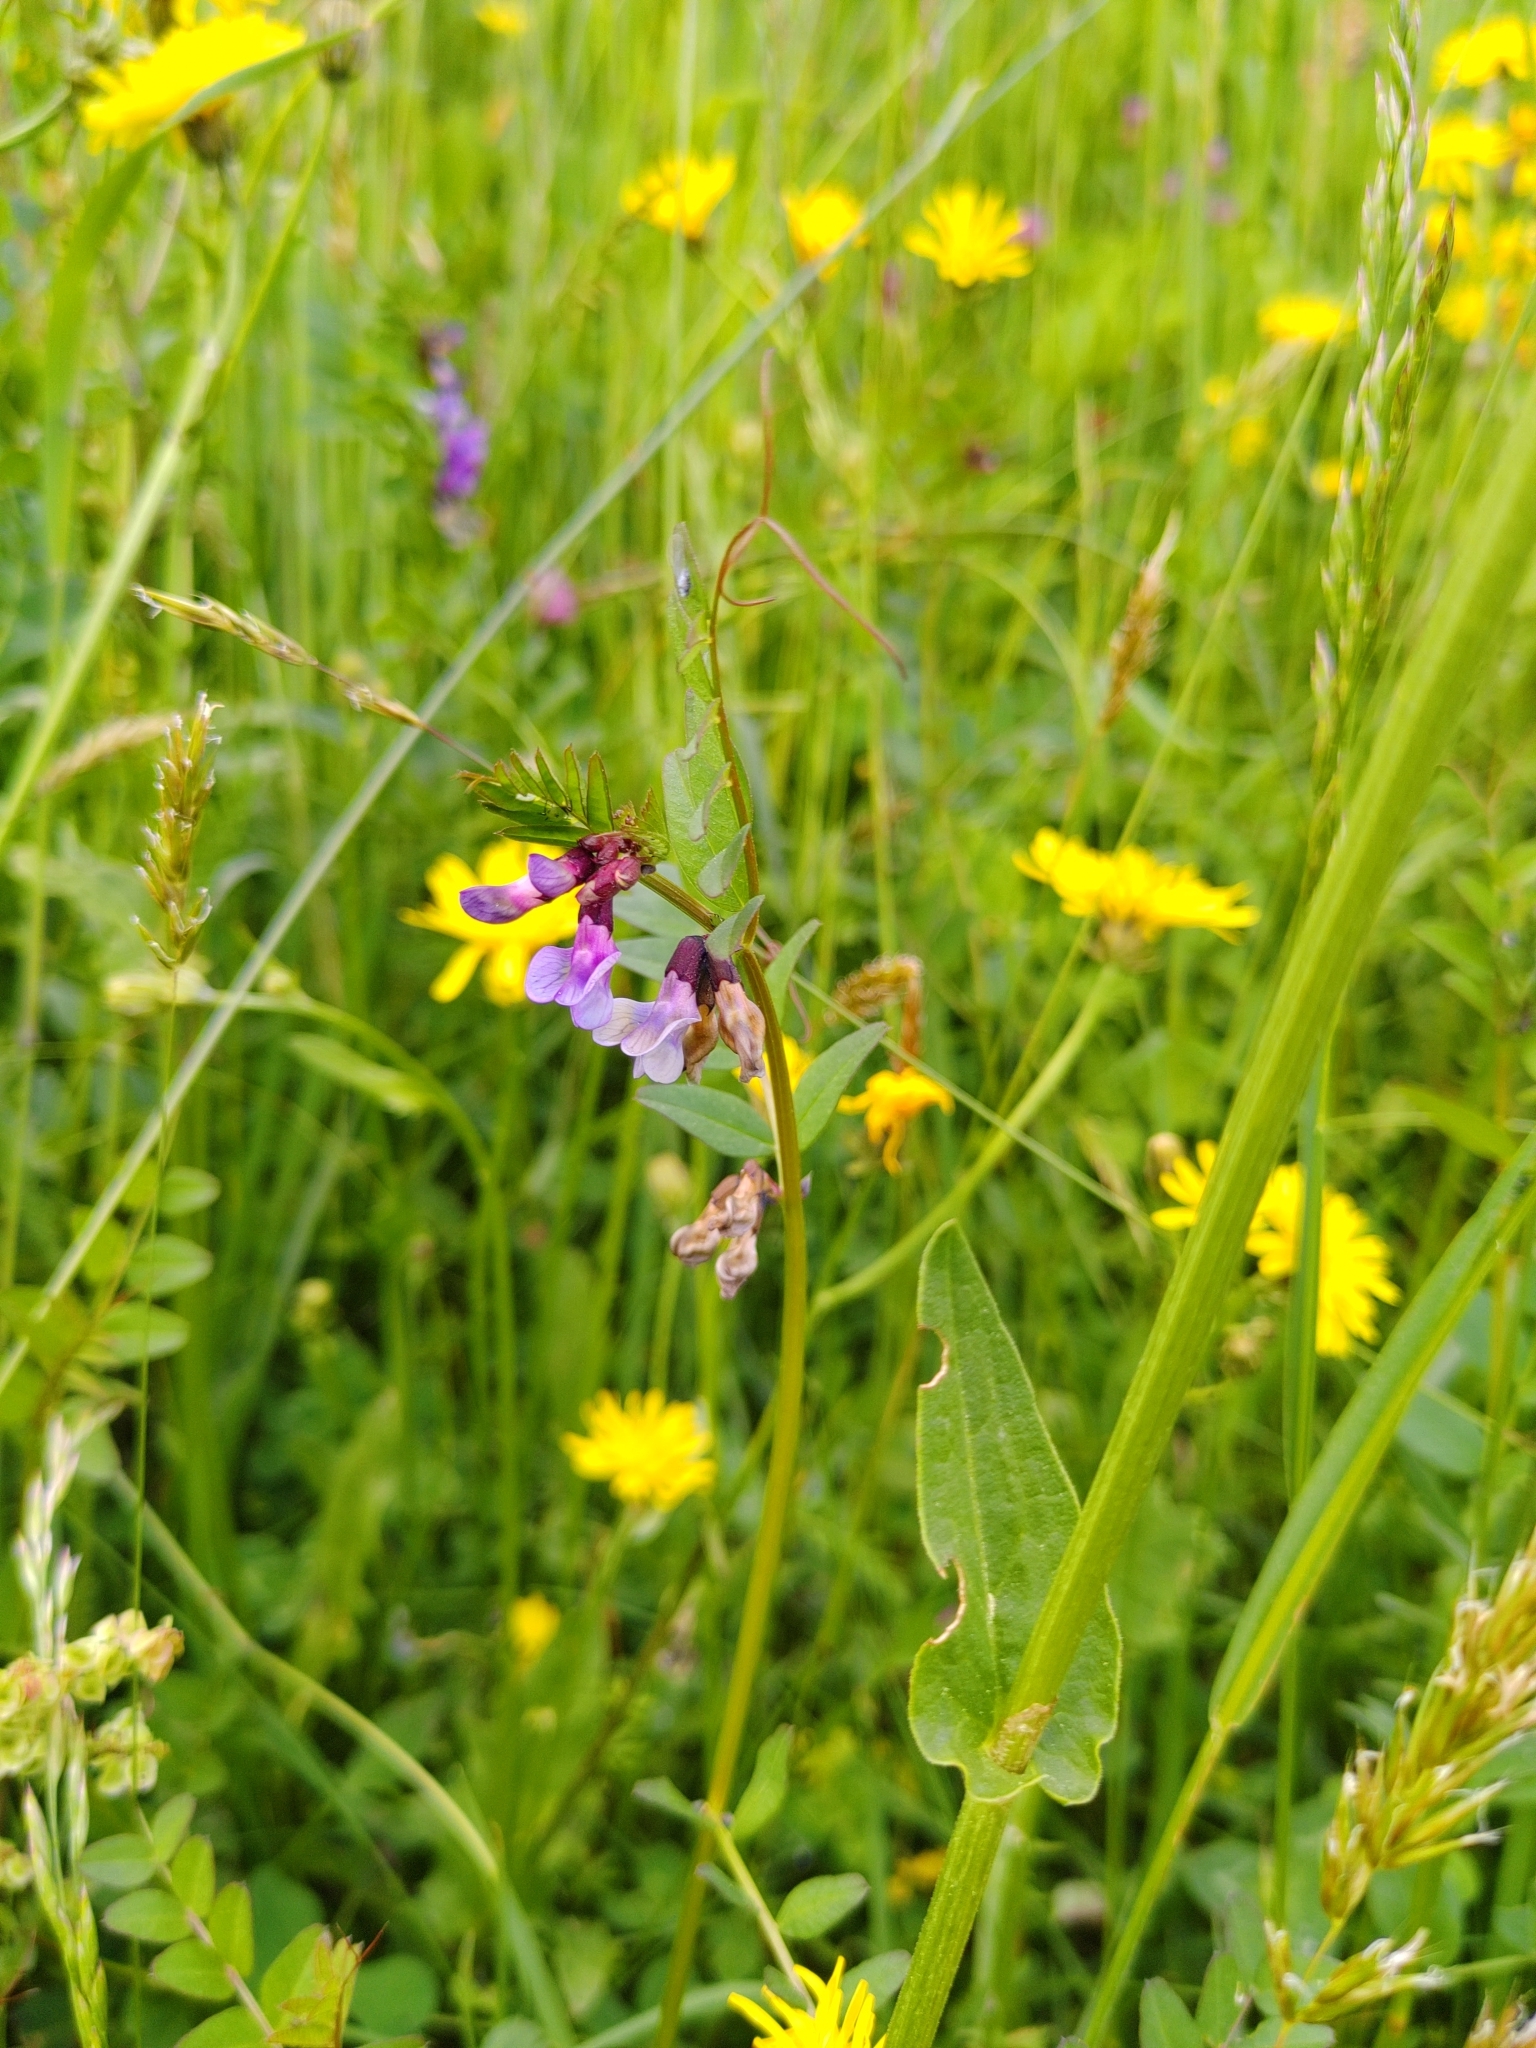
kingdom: Plantae
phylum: Tracheophyta
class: Magnoliopsida
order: Fabales
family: Fabaceae
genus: Vicia
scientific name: Vicia sepium
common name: Bush vetch
